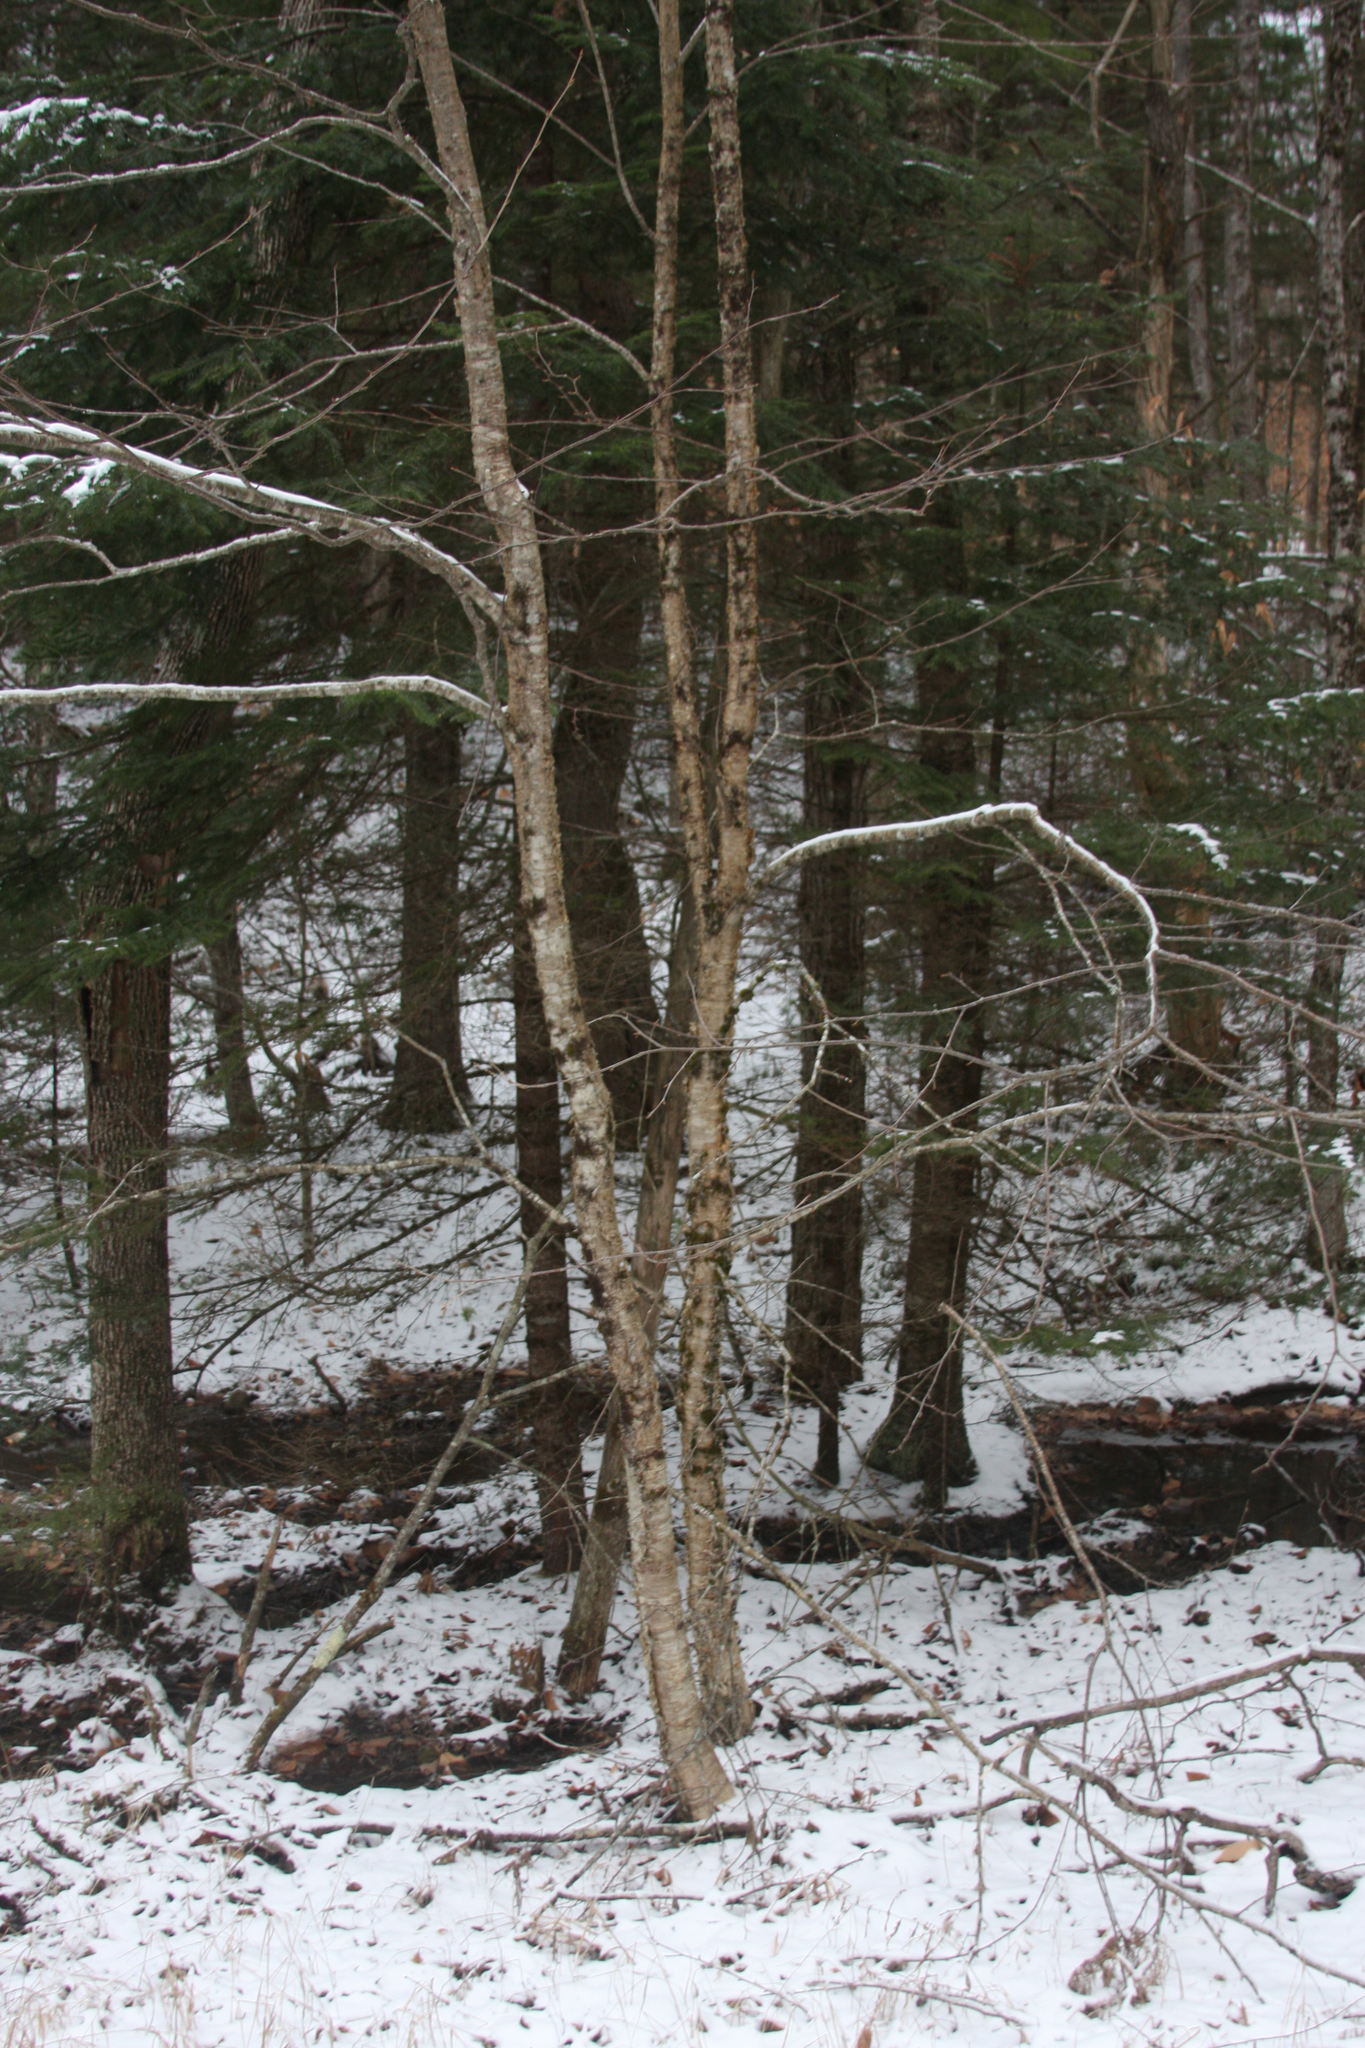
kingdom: Plantae
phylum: Tracheophyta
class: Magnoliopsida
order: Fagales
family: Betulaceae
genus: Betula
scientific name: Betula alleghaniensis
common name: Yellow birch
